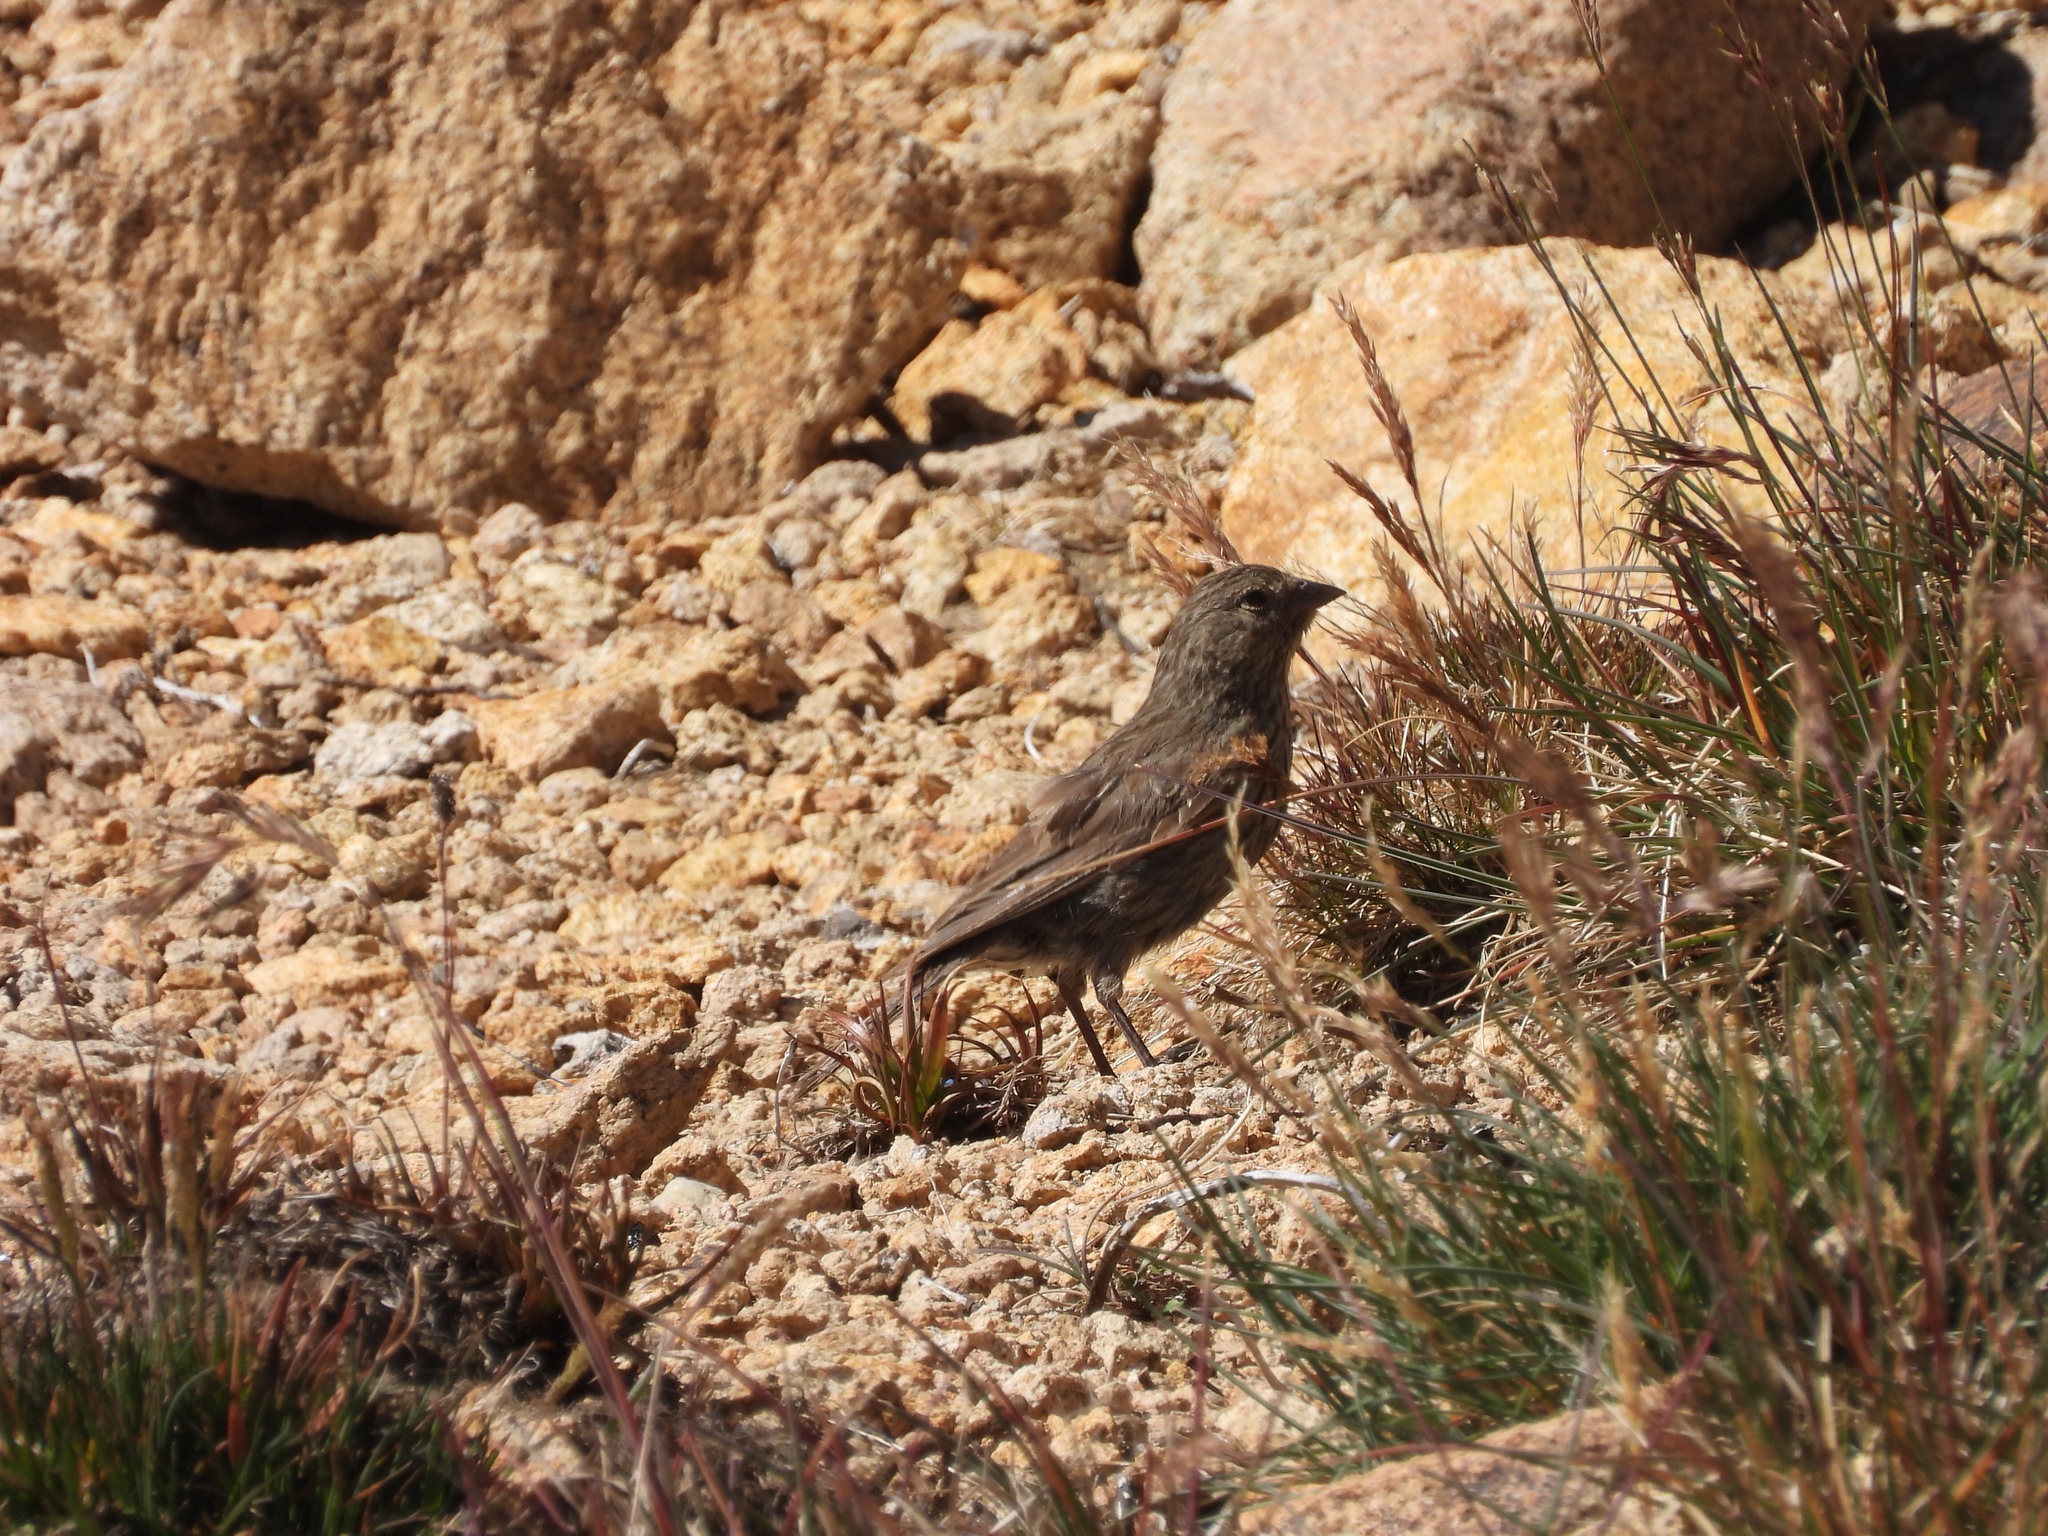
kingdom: Animalia
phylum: Chordata
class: Aves
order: Passeriformes
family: Thraupidae
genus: Geospizopsis
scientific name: Geospizopsis unicolor
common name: Plumbeous sierra-finch
